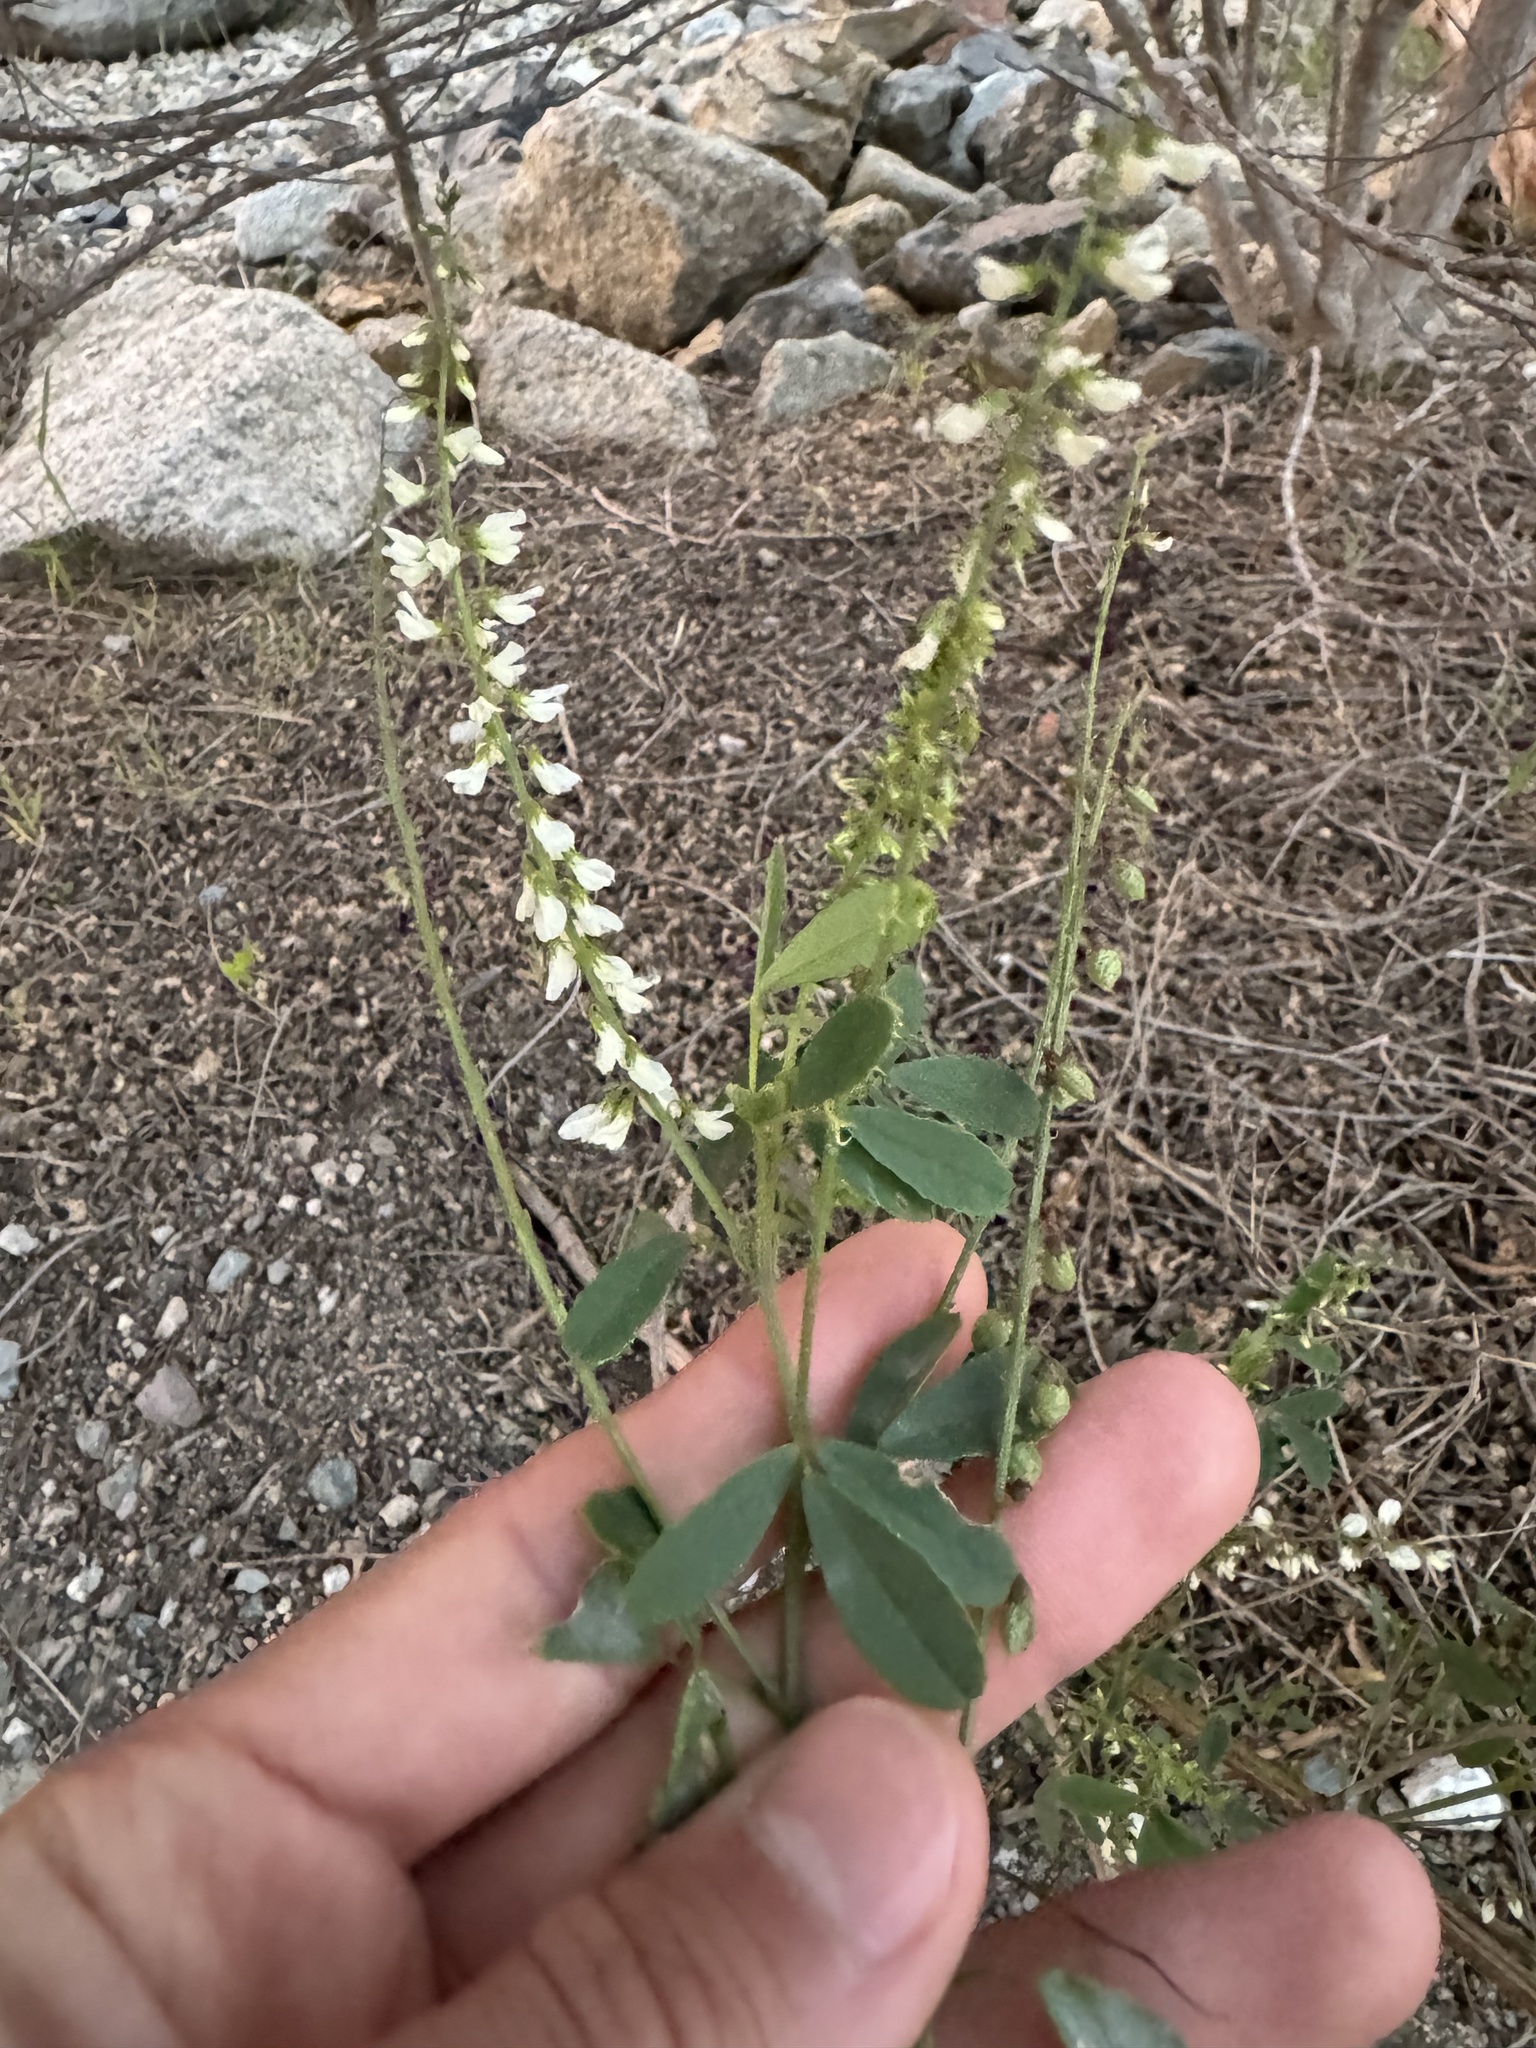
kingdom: Plantae
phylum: Tracheophyta
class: Magnoliopsida
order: Fabales
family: Fabaceae
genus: Melilotus
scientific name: Melilotus albus
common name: White melilot
